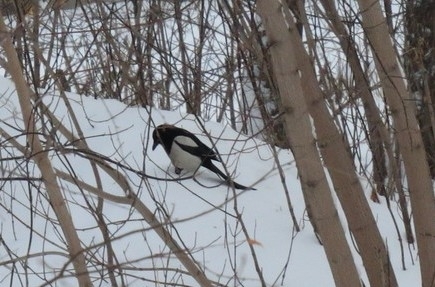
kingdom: Animalia
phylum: Chordata
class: Aves
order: Passeriformes
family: Corvidae
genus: Pica
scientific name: Pica pica
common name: Eurasian magpie
